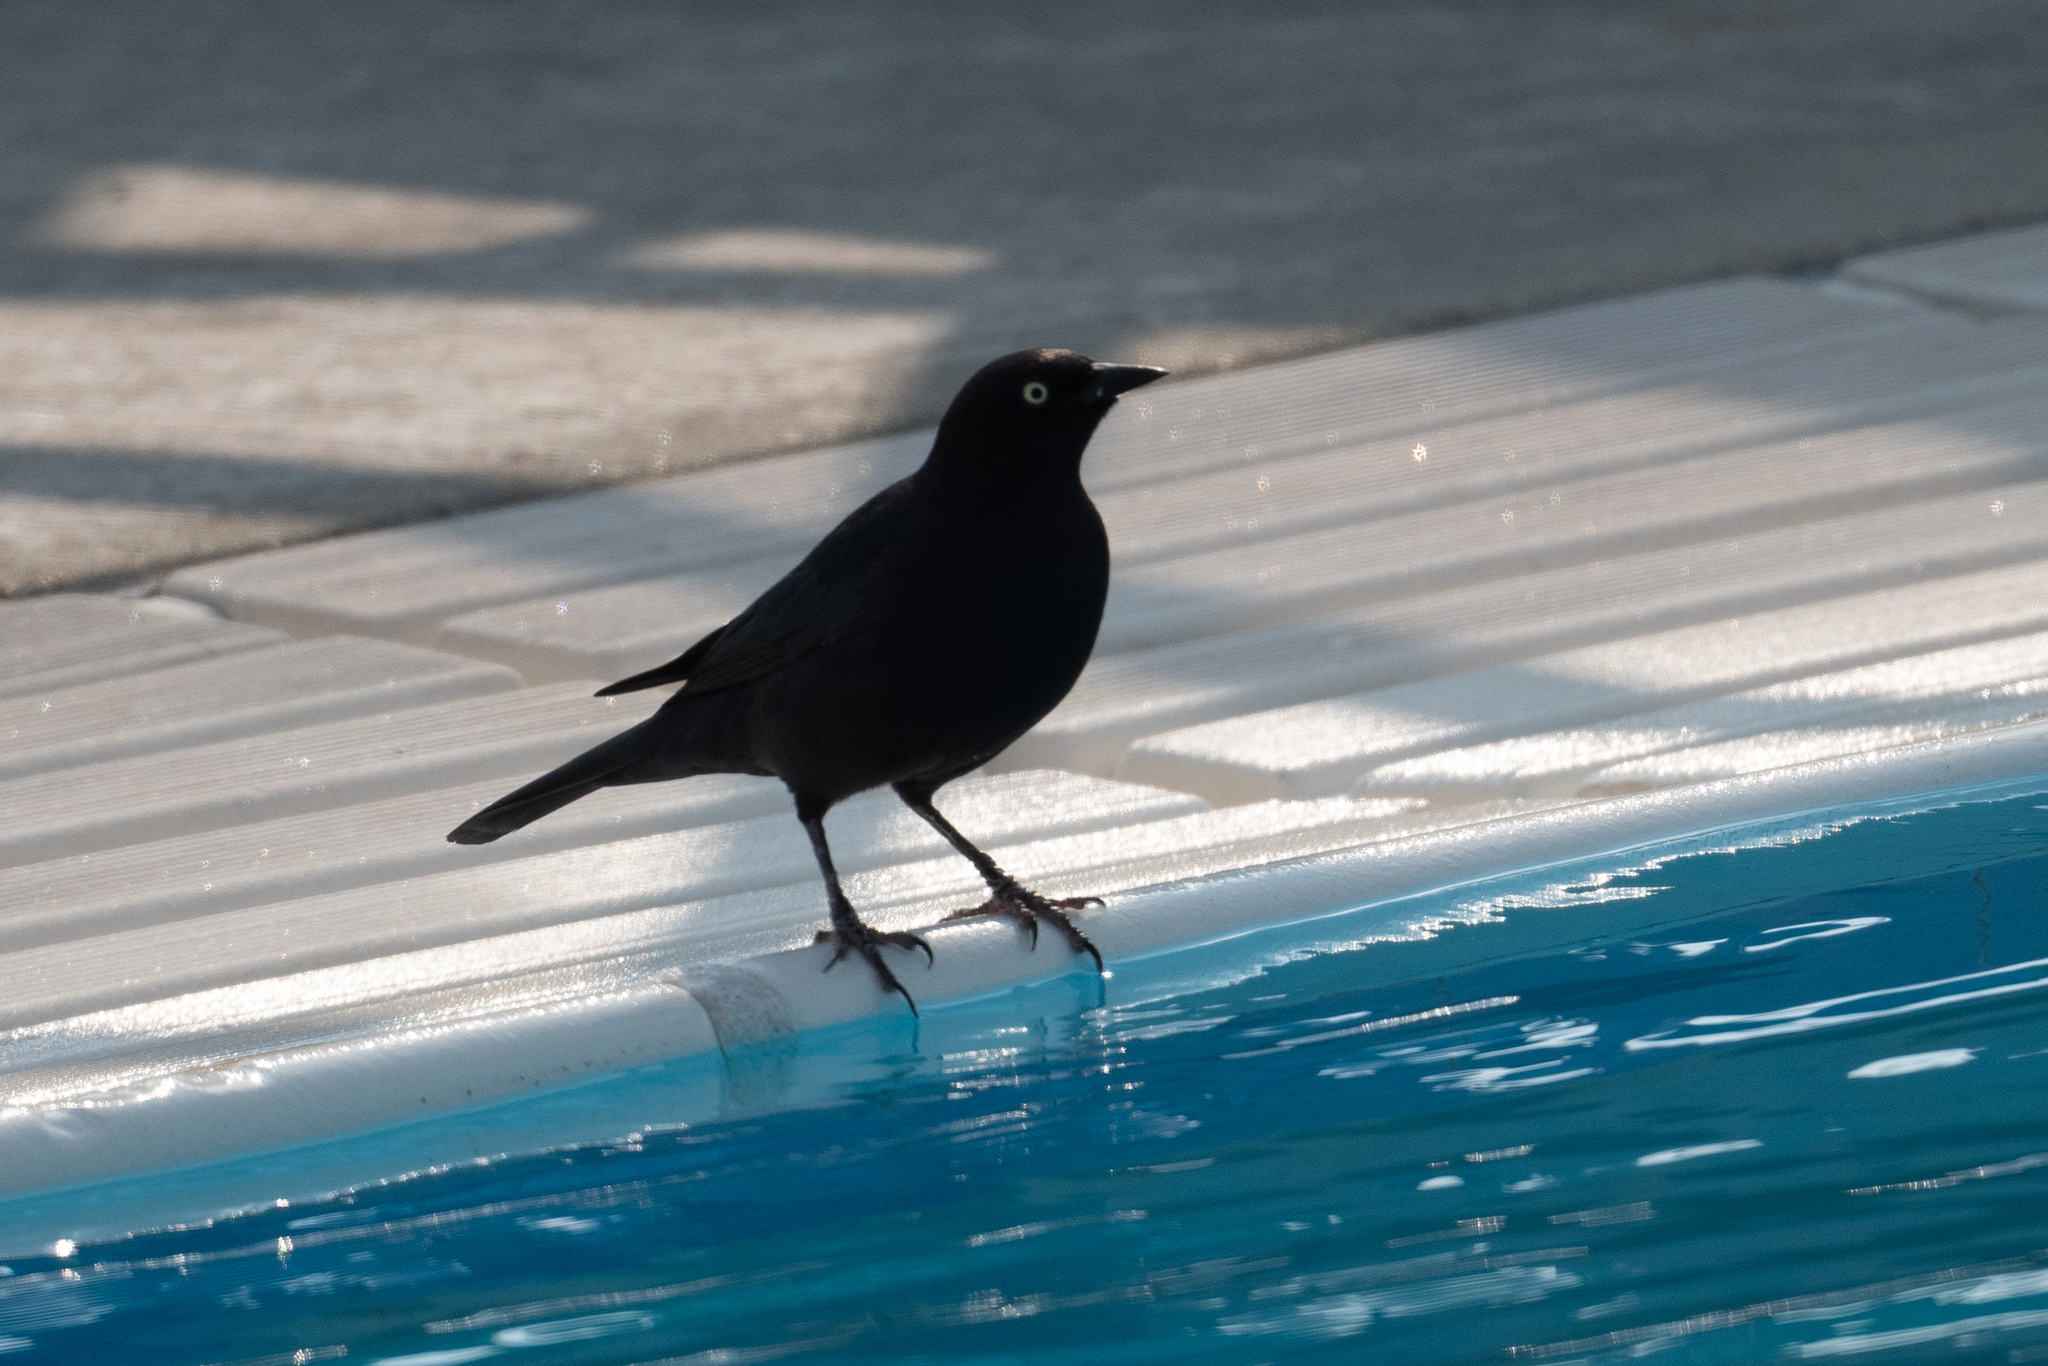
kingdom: Animalia
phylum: Chordata
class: Aves
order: Passeriformes
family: Icteridae
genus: Euphagus
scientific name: Euphagus cyanocephalus
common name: Brewer's blackbird
